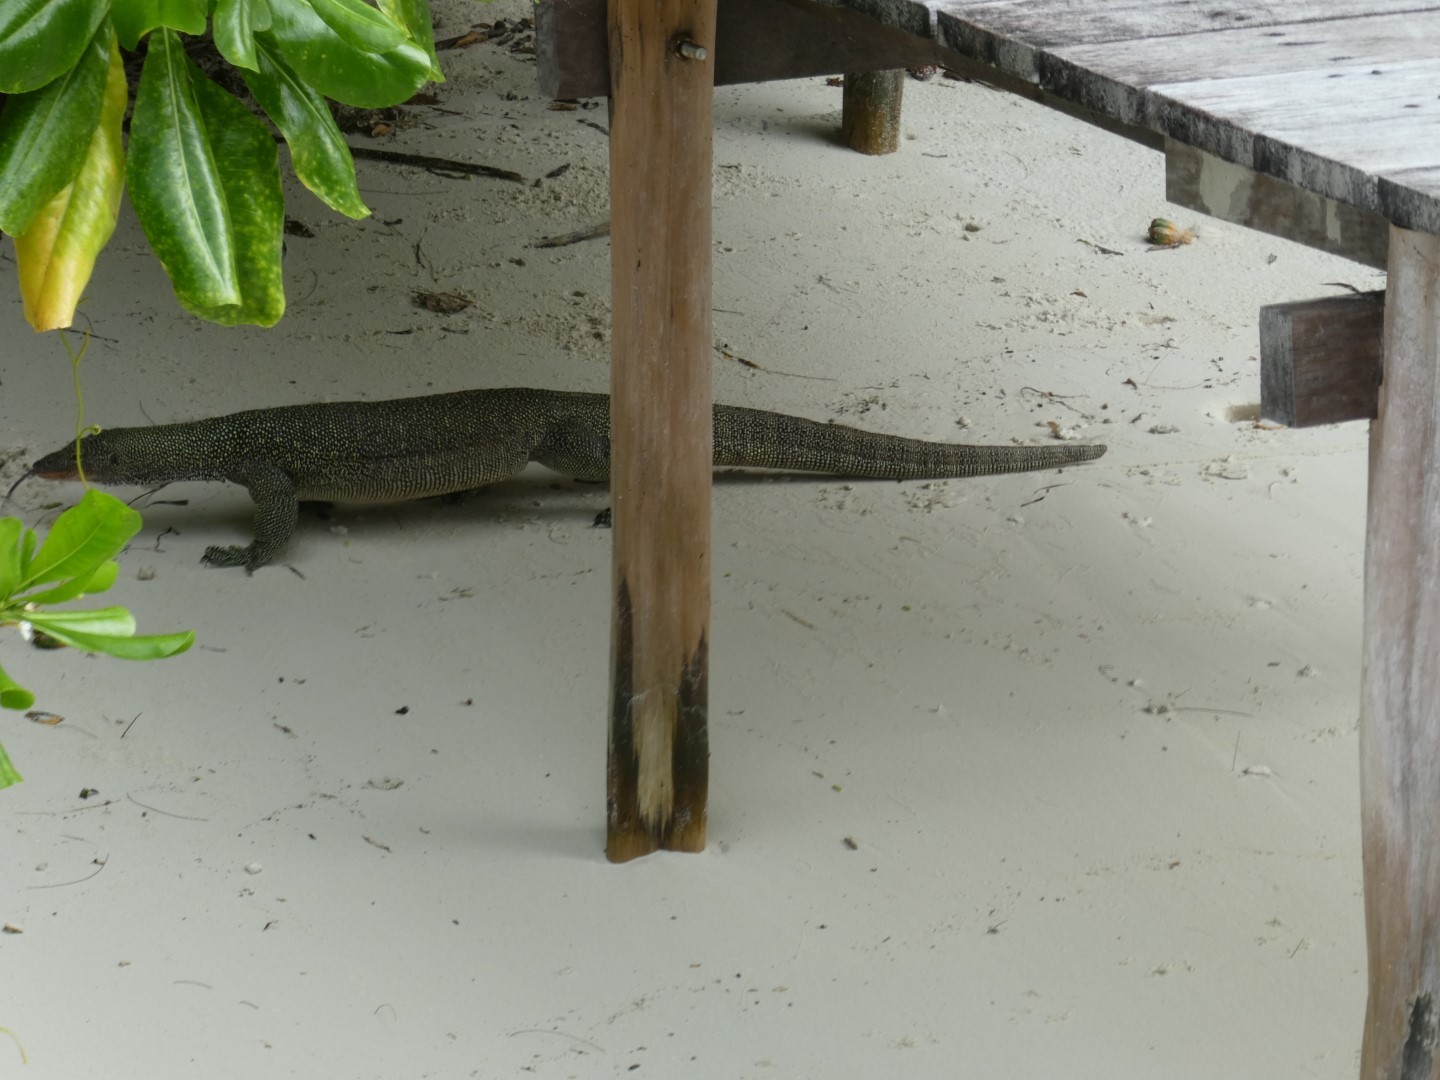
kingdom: Animalia
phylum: Chordata
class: Squamata
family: Varanidae
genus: Varanus
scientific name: Varanus indicus
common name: Mangrove monitor
